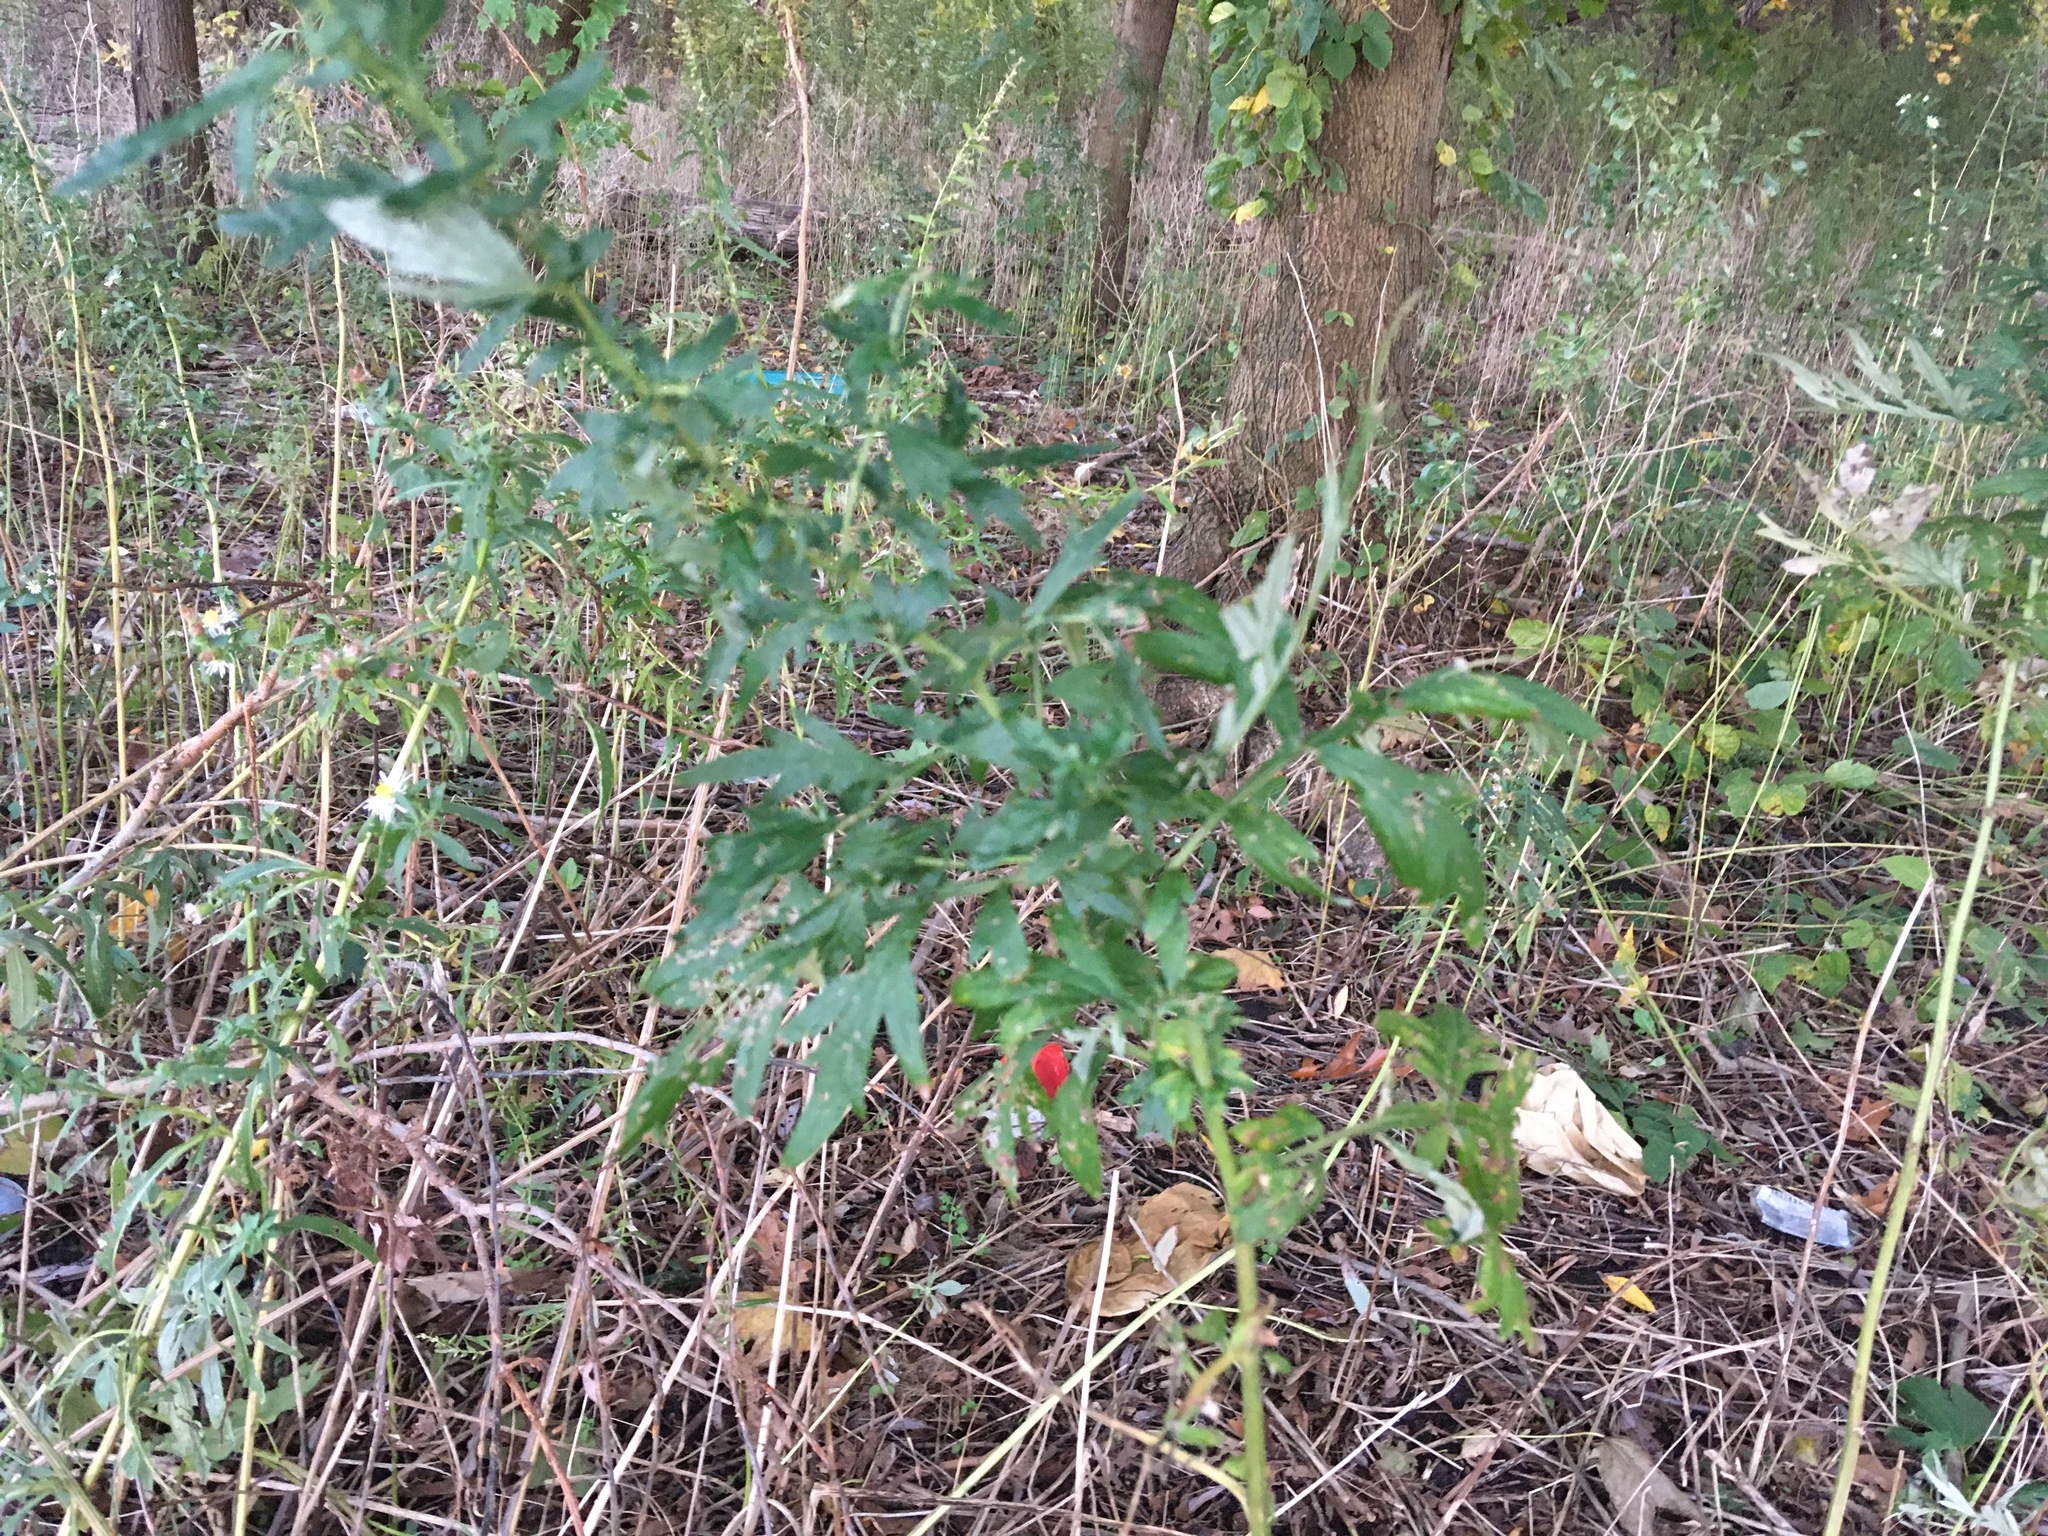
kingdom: Plantae
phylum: Tracheophyta
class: Magnoliopsida
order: Asterales
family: Asteraceae
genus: Artemisia
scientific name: Artemisia vulgaris
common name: Mugwort
